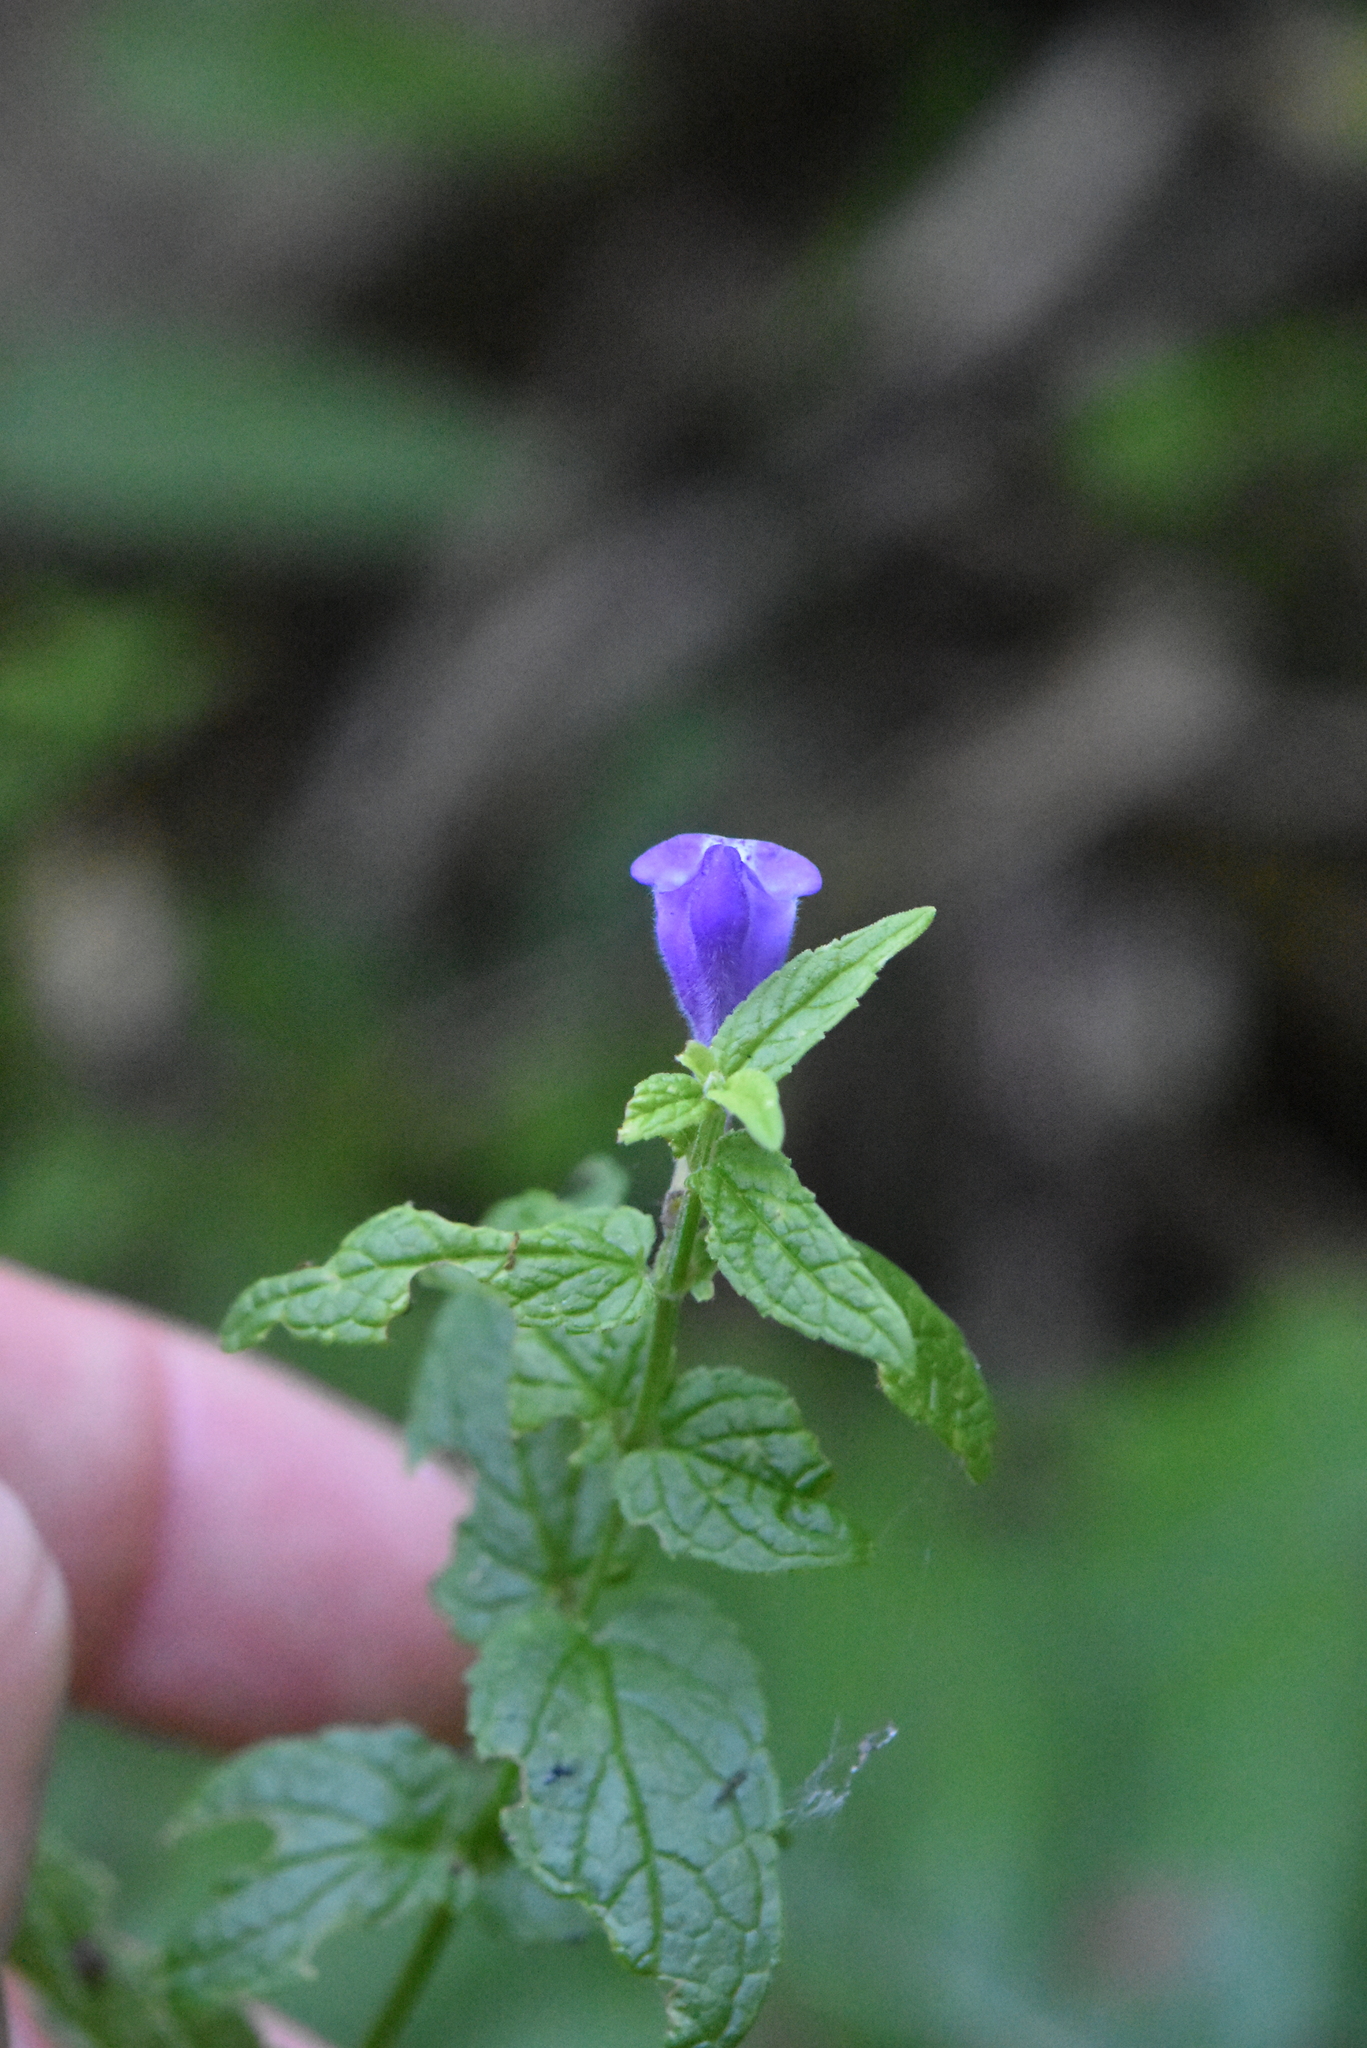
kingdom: Plantae
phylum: Tracheophyta
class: Magnoliopsida
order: Lamiales
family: Lamiaceae
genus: Scutellaria
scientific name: Scutellaria galericulata
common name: Skullcap
